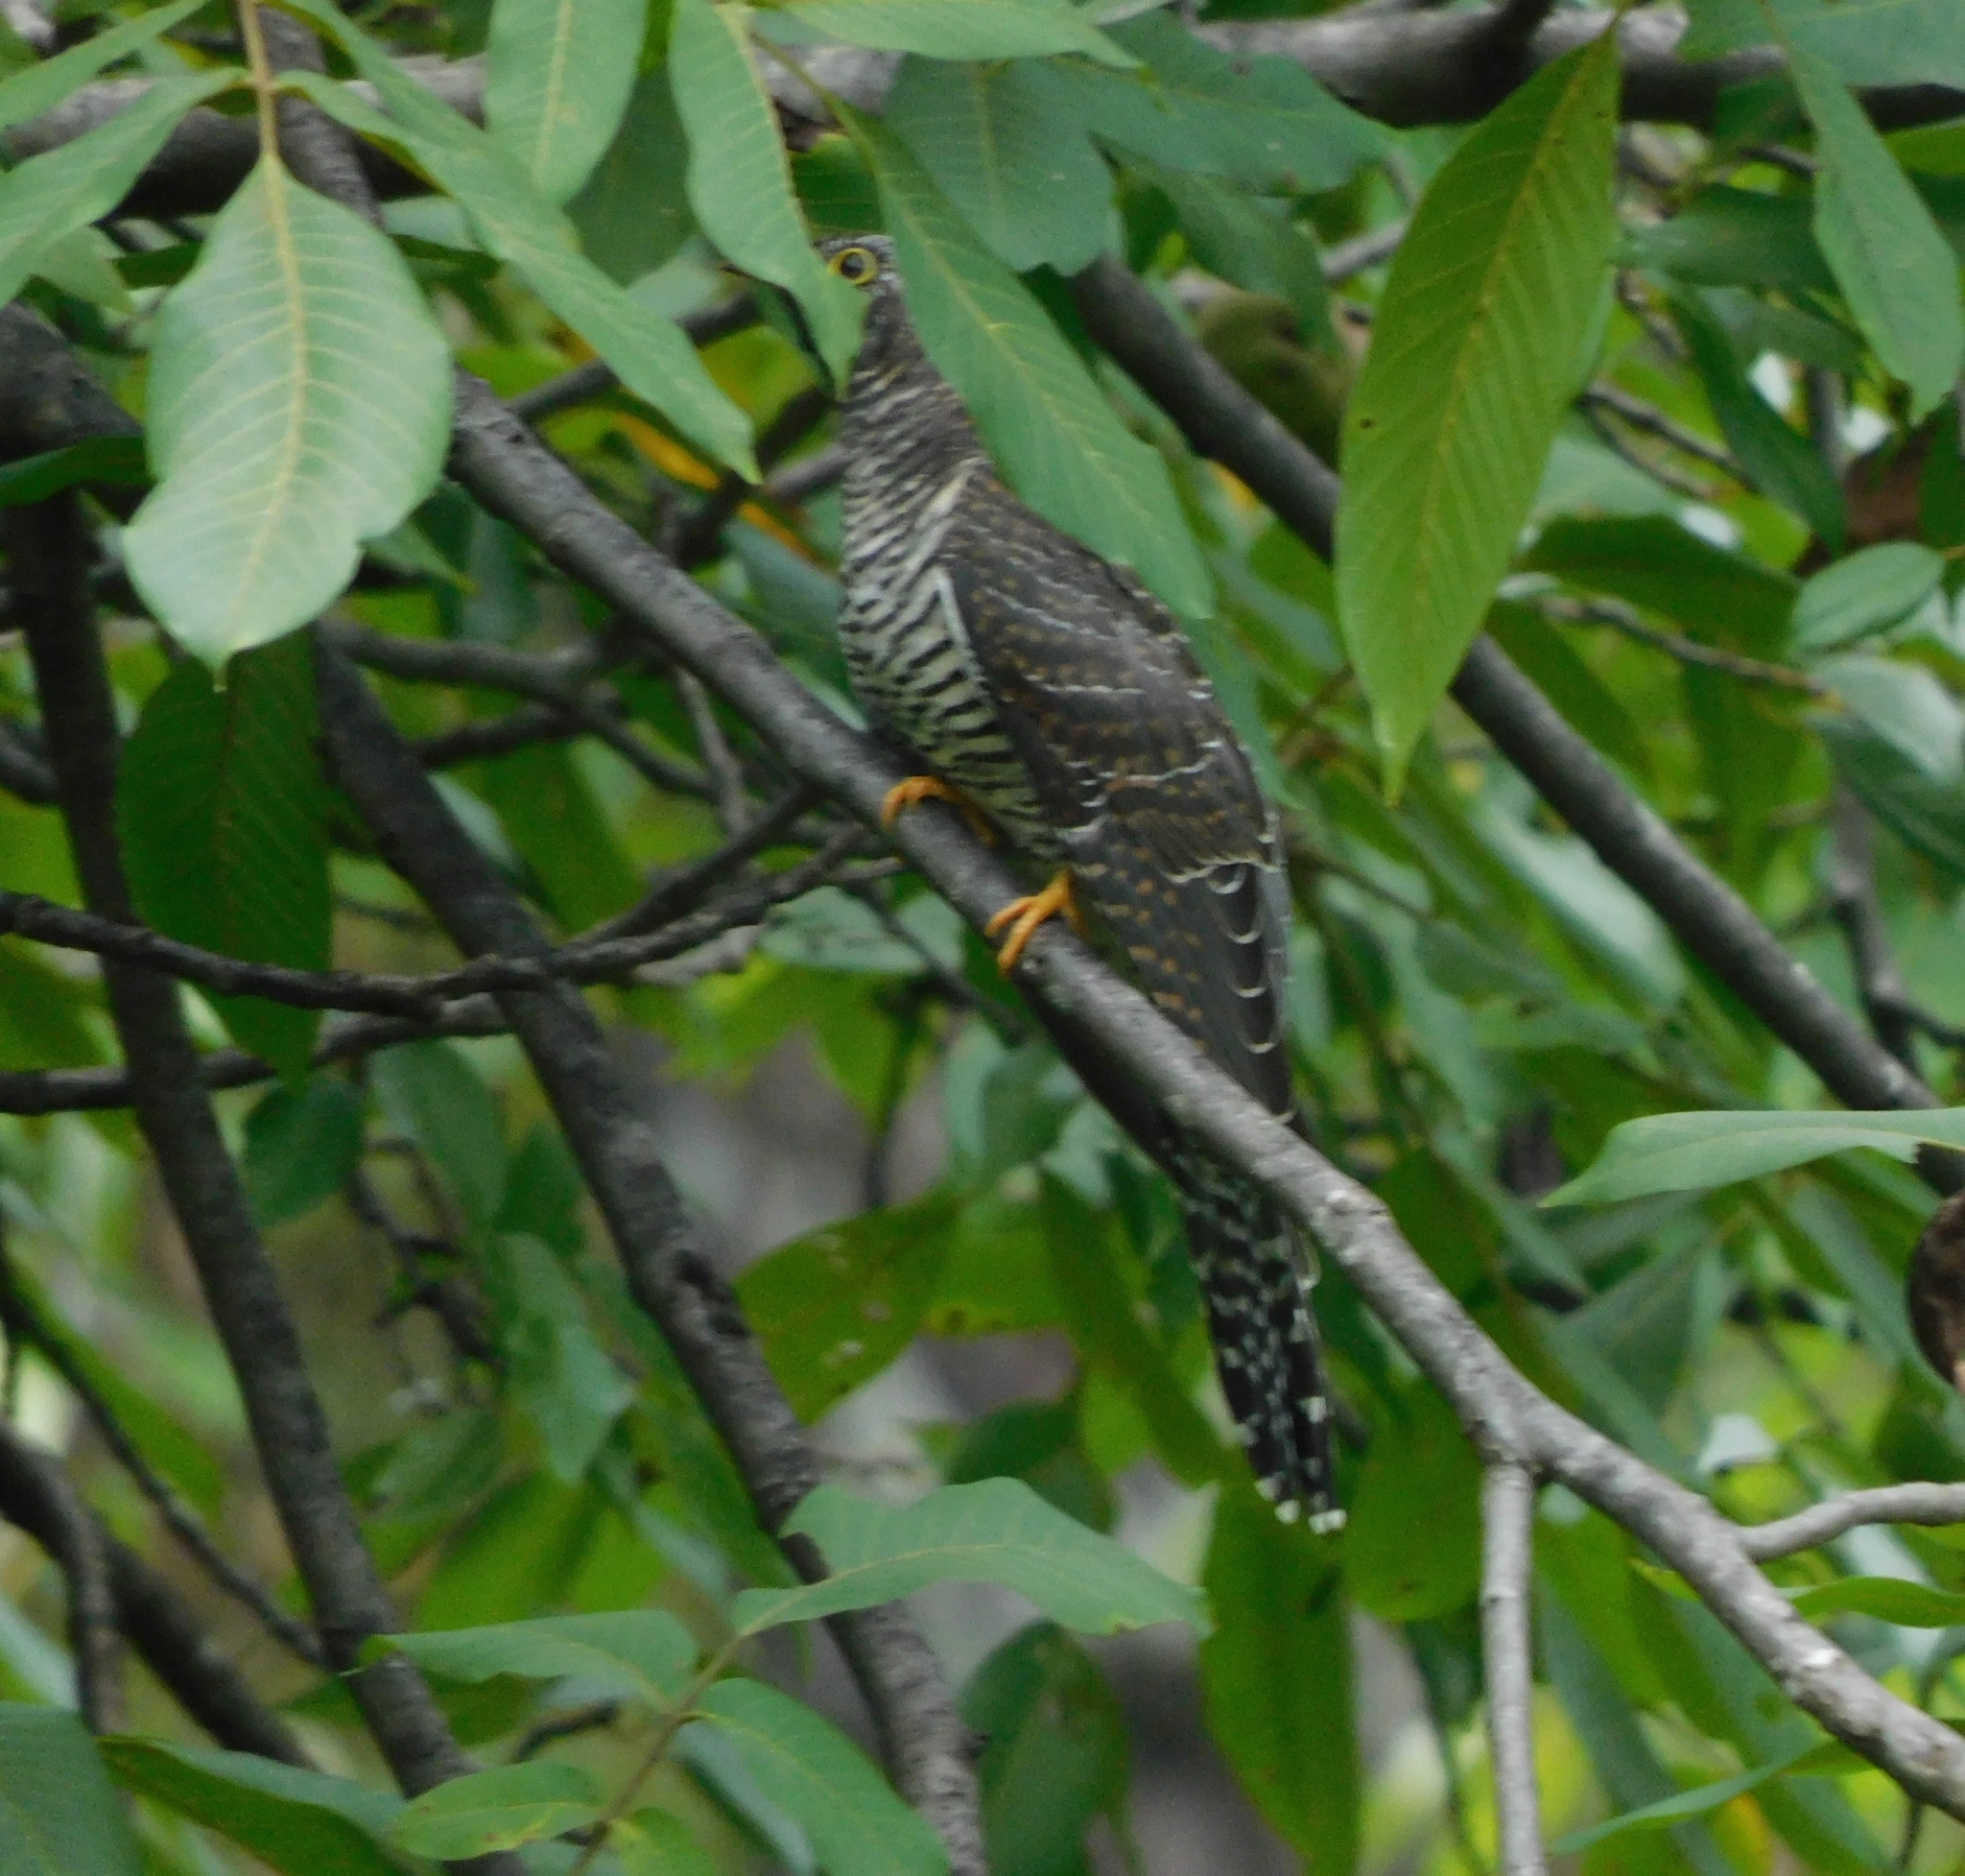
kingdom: Animalia
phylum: Chordata
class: Aves
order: Cuculiformes
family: Cuculidae
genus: Cuculus
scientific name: Cuculus canorus
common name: Common cuckoo
